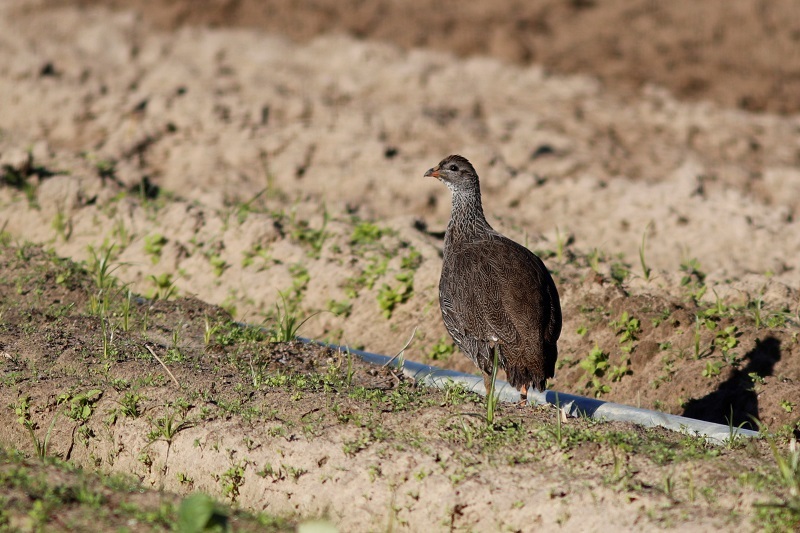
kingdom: Animalia
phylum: Chordata
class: Aves
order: Galliformes
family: Phasianidae
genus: Pternistis
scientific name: Pternistis capensis
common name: Cape spurfowl
